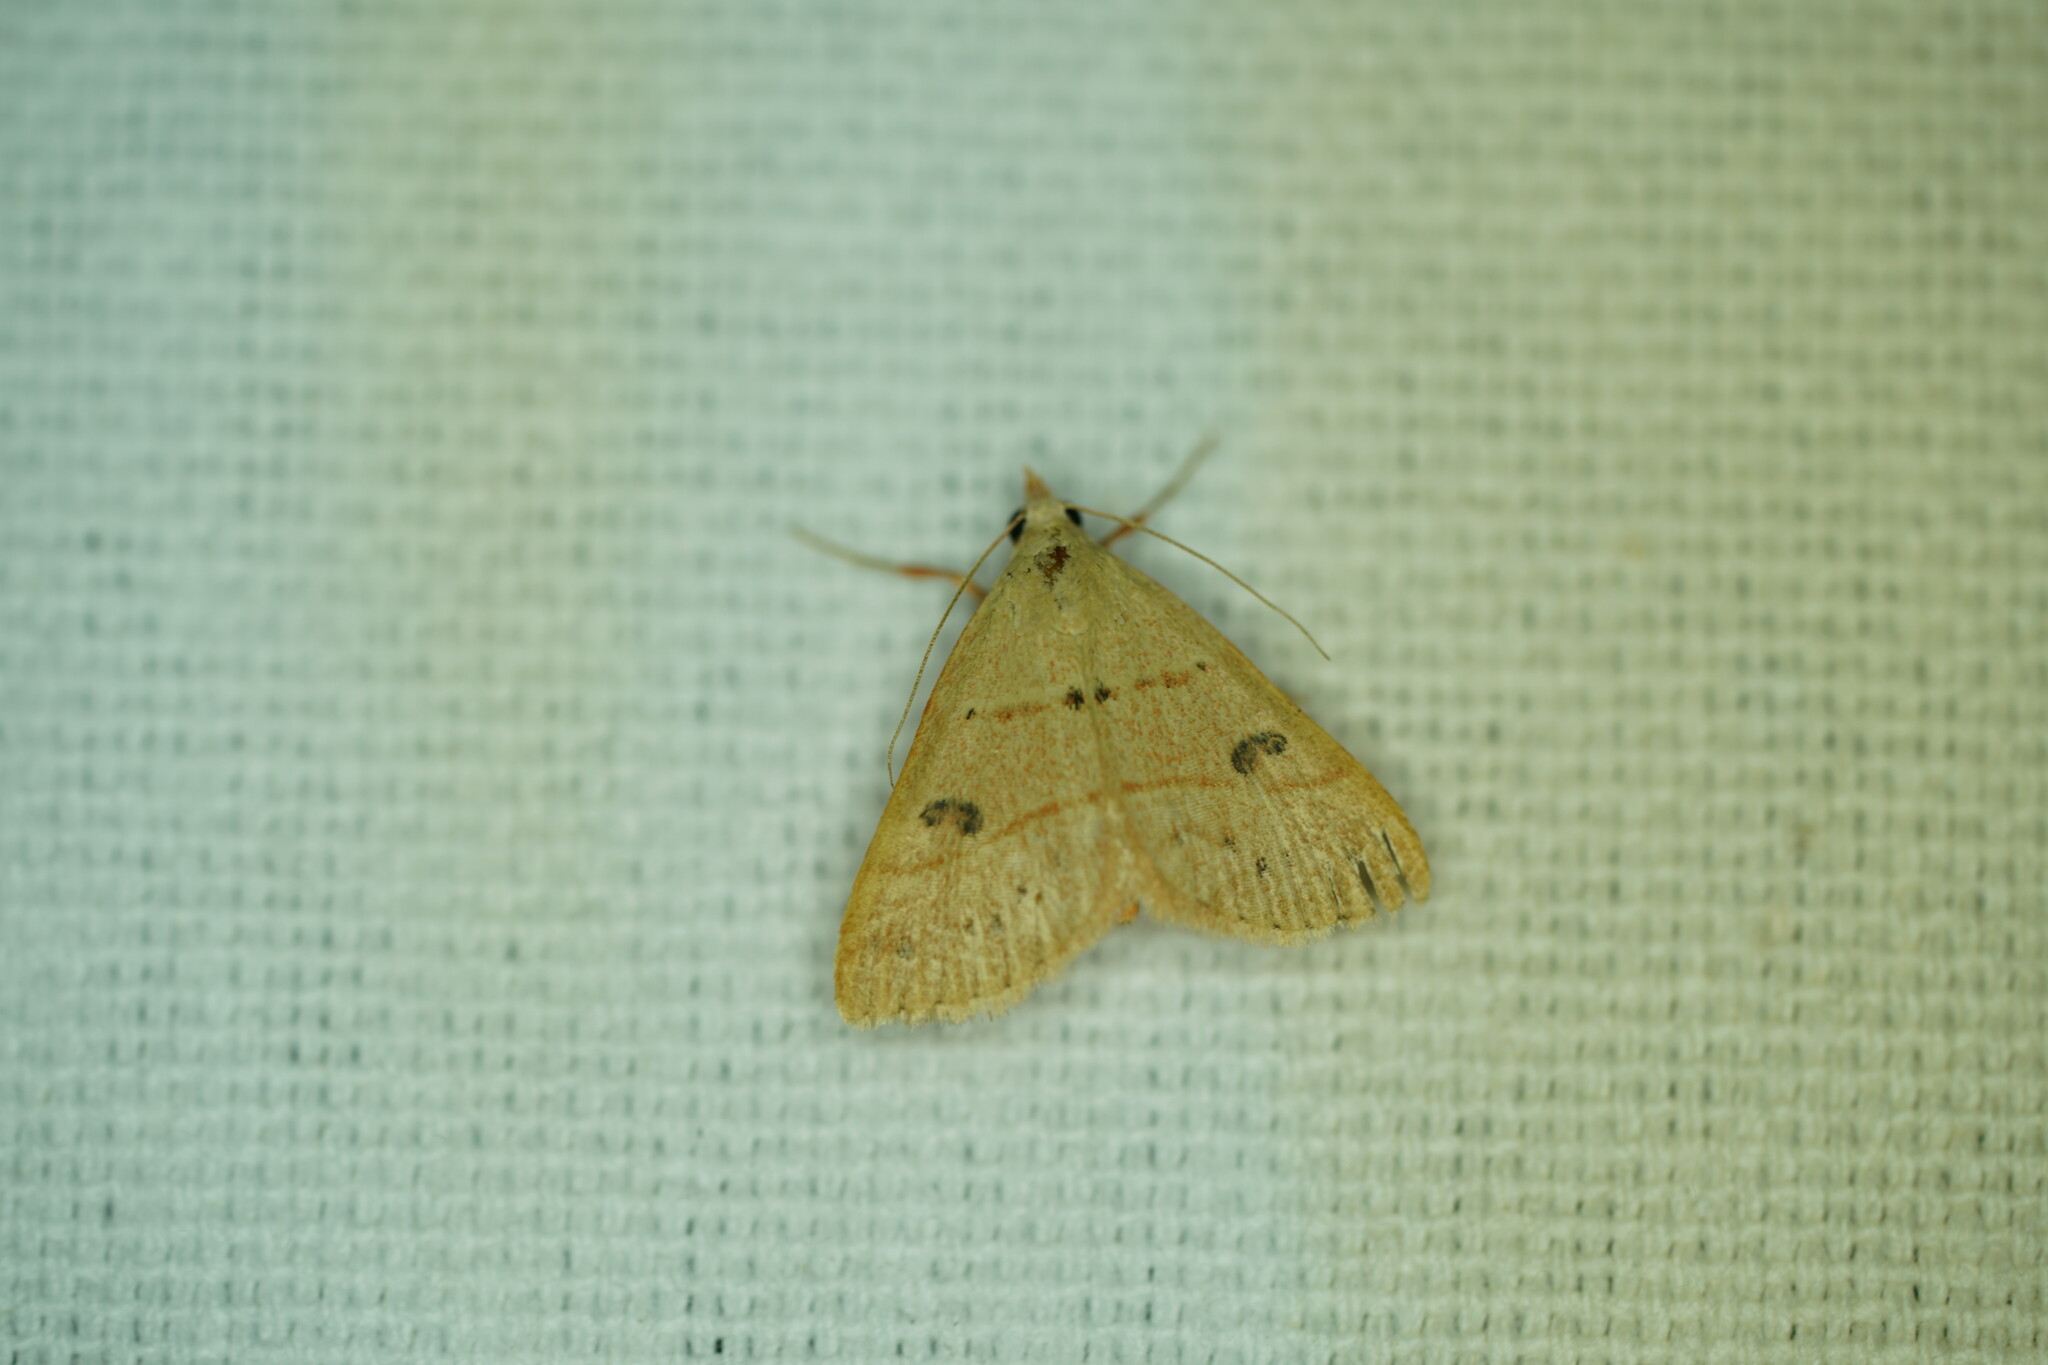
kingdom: Animalia
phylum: Arthropoda
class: Insecta
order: Lepidoptera
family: Erebidae
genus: Hemeroplanis
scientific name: Hemeroplanis habitalis
